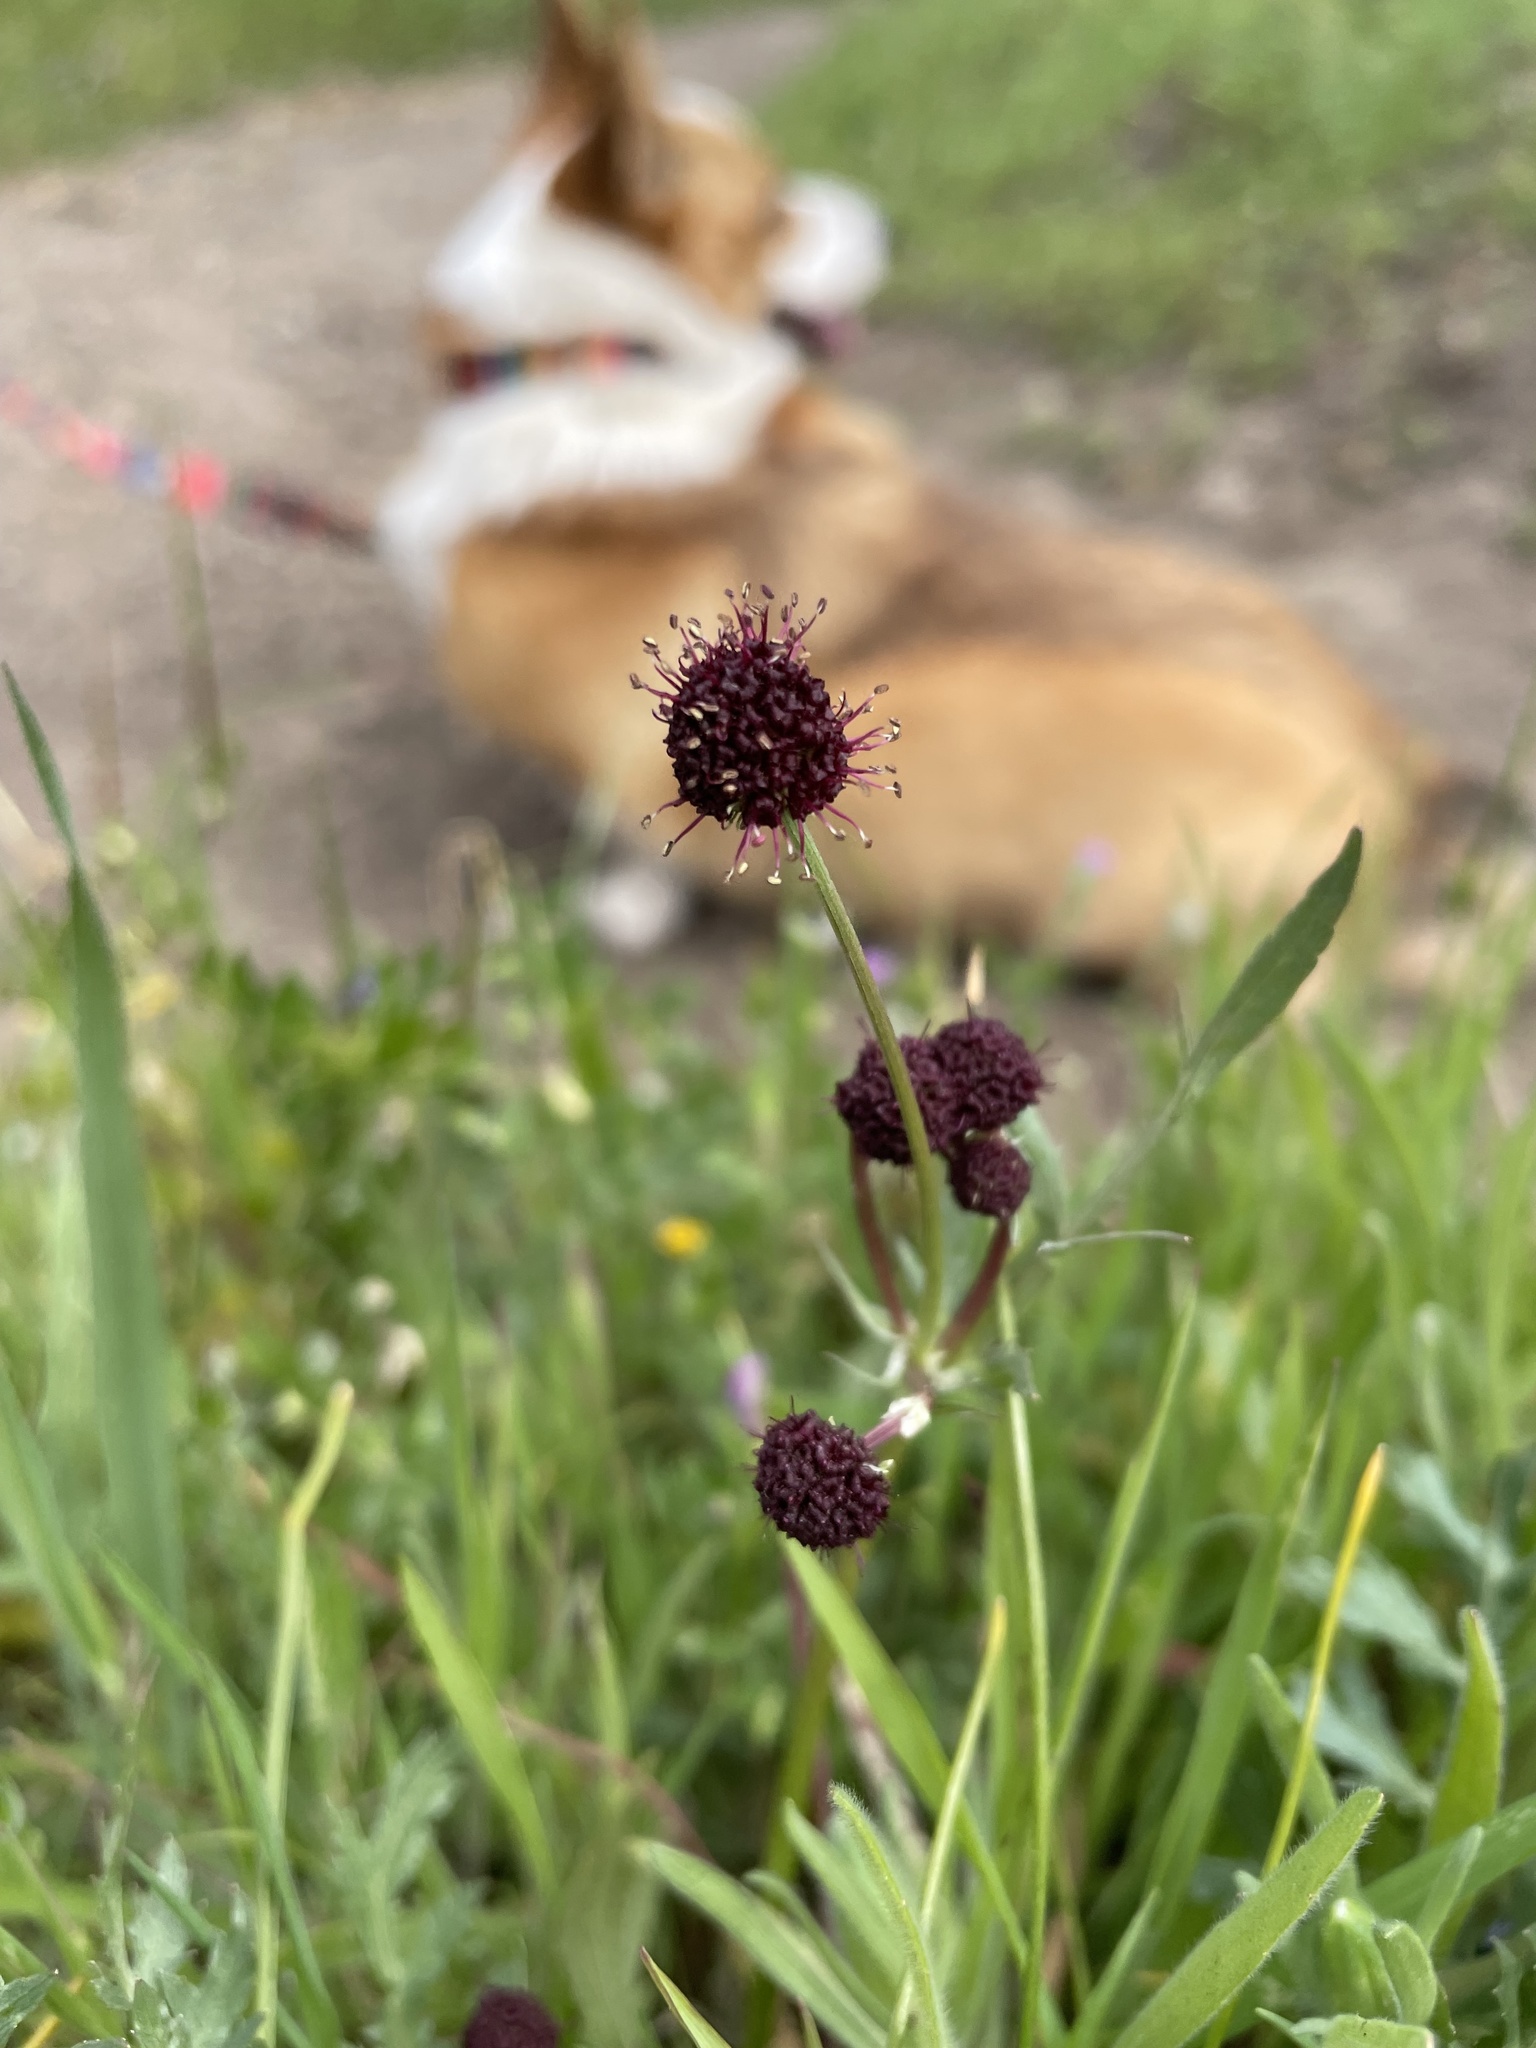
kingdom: Plantae
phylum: Tracheophyta
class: Magnoliopsida
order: Apiales
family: Apiaceae
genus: Sanicula
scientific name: Sanicula bipinnatifida
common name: Shoe-buttons
